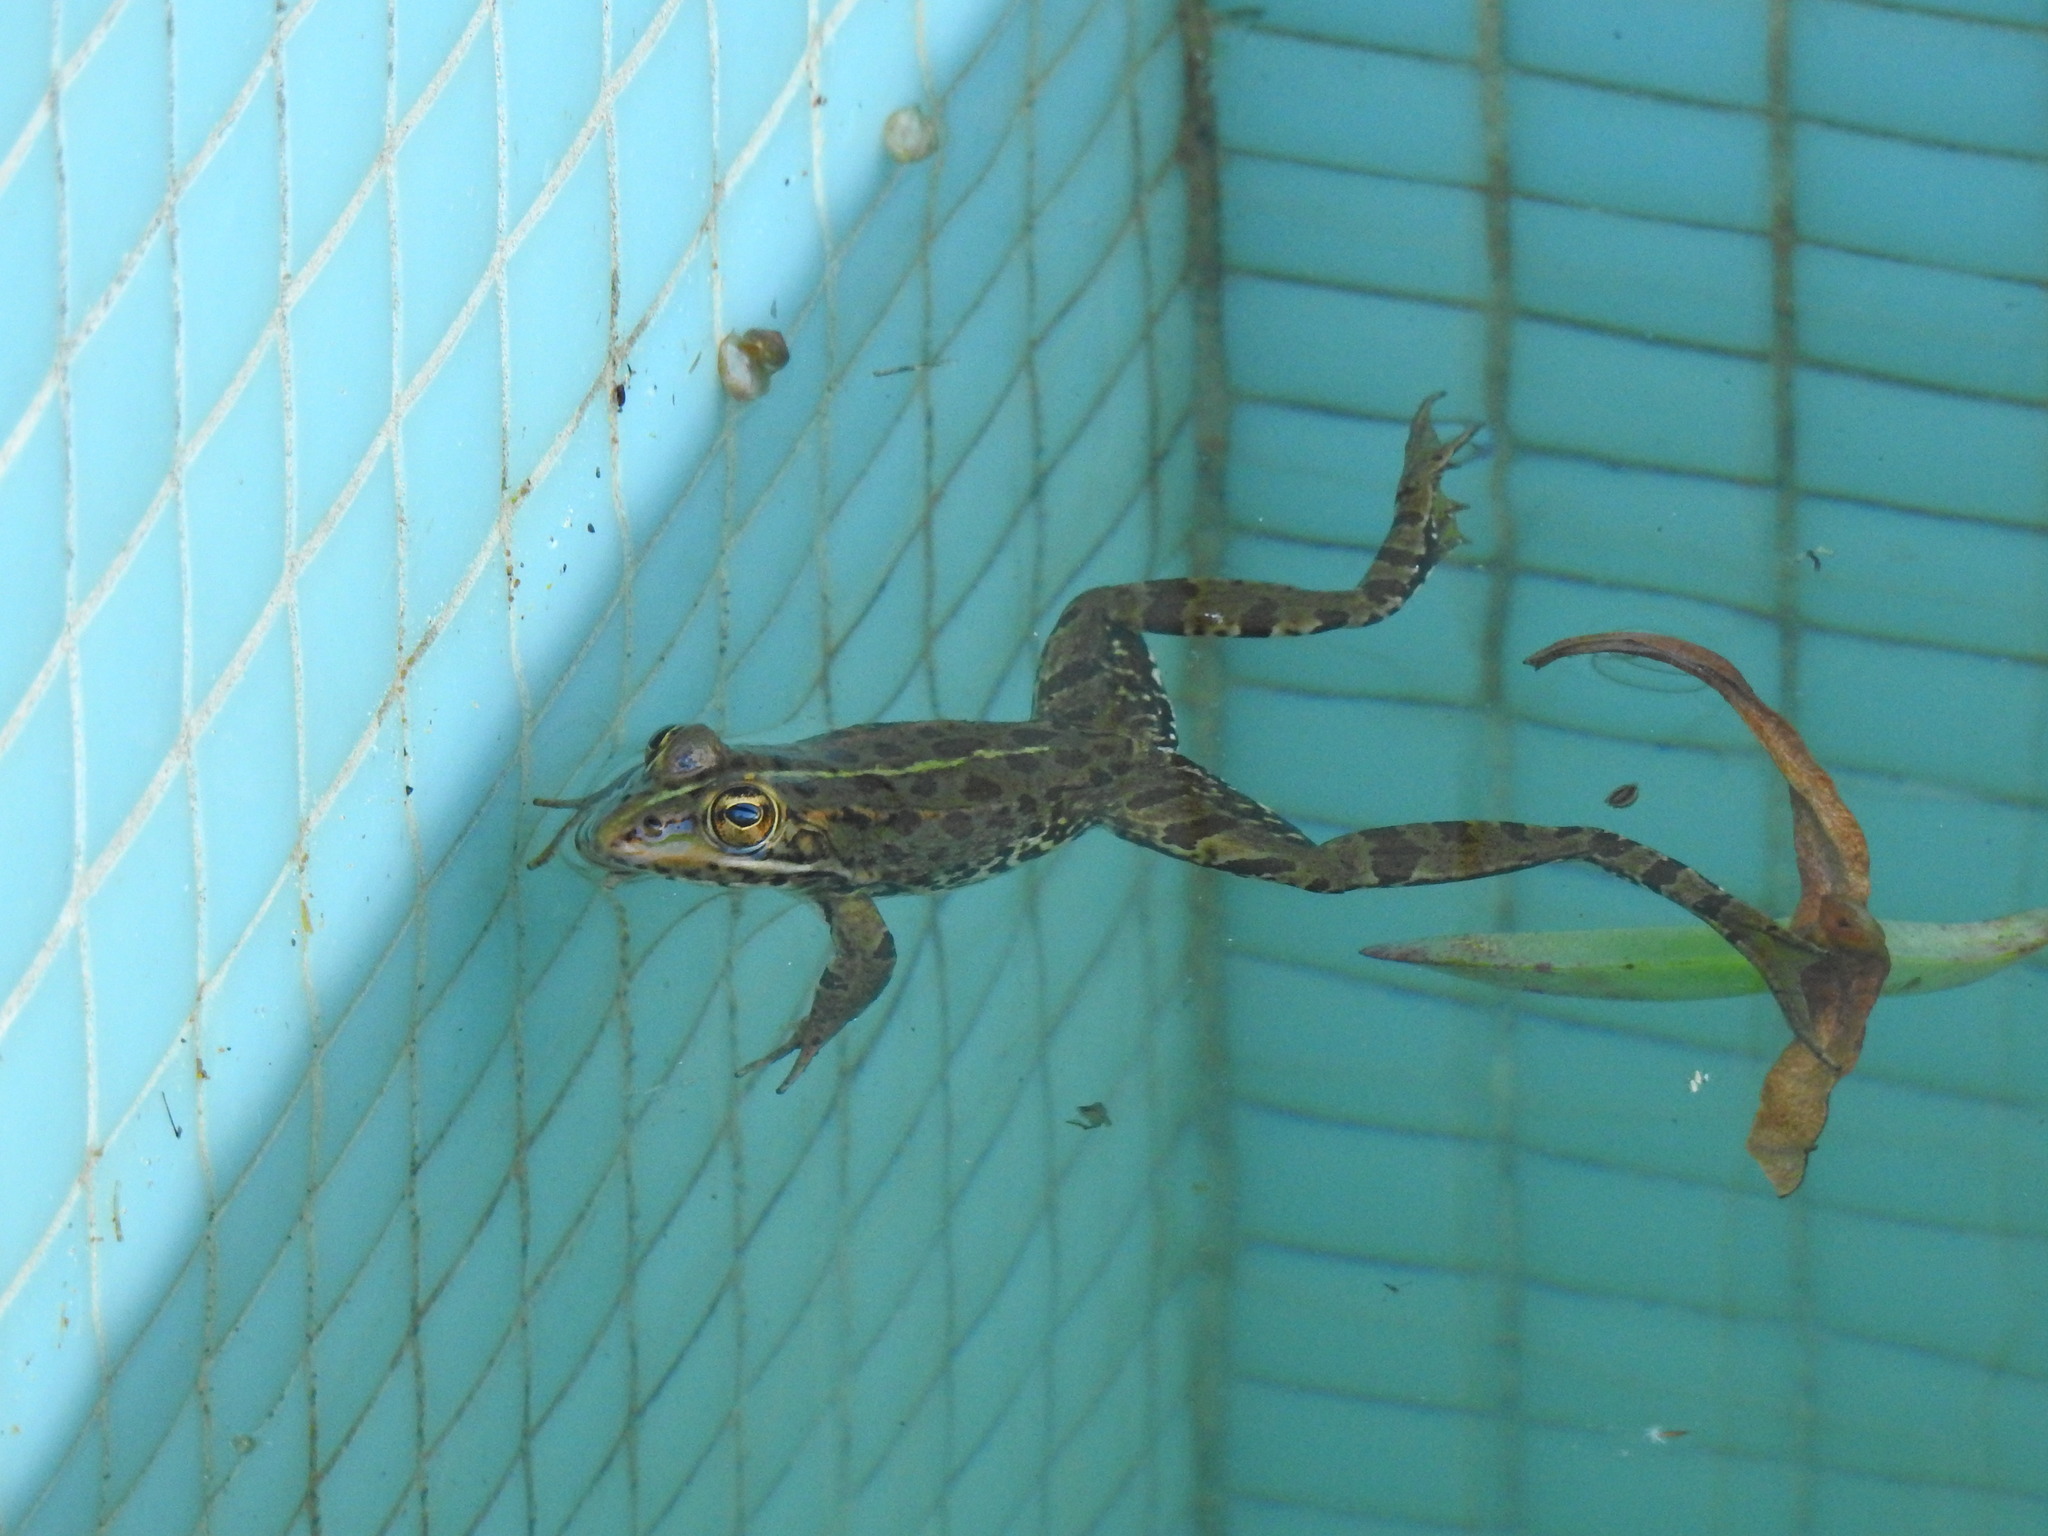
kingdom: Animalia
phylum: Chordata
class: Amphibia
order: Anura
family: Ranidae
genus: Pelophylax
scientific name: Pelophylax perezi
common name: Perez's frog
